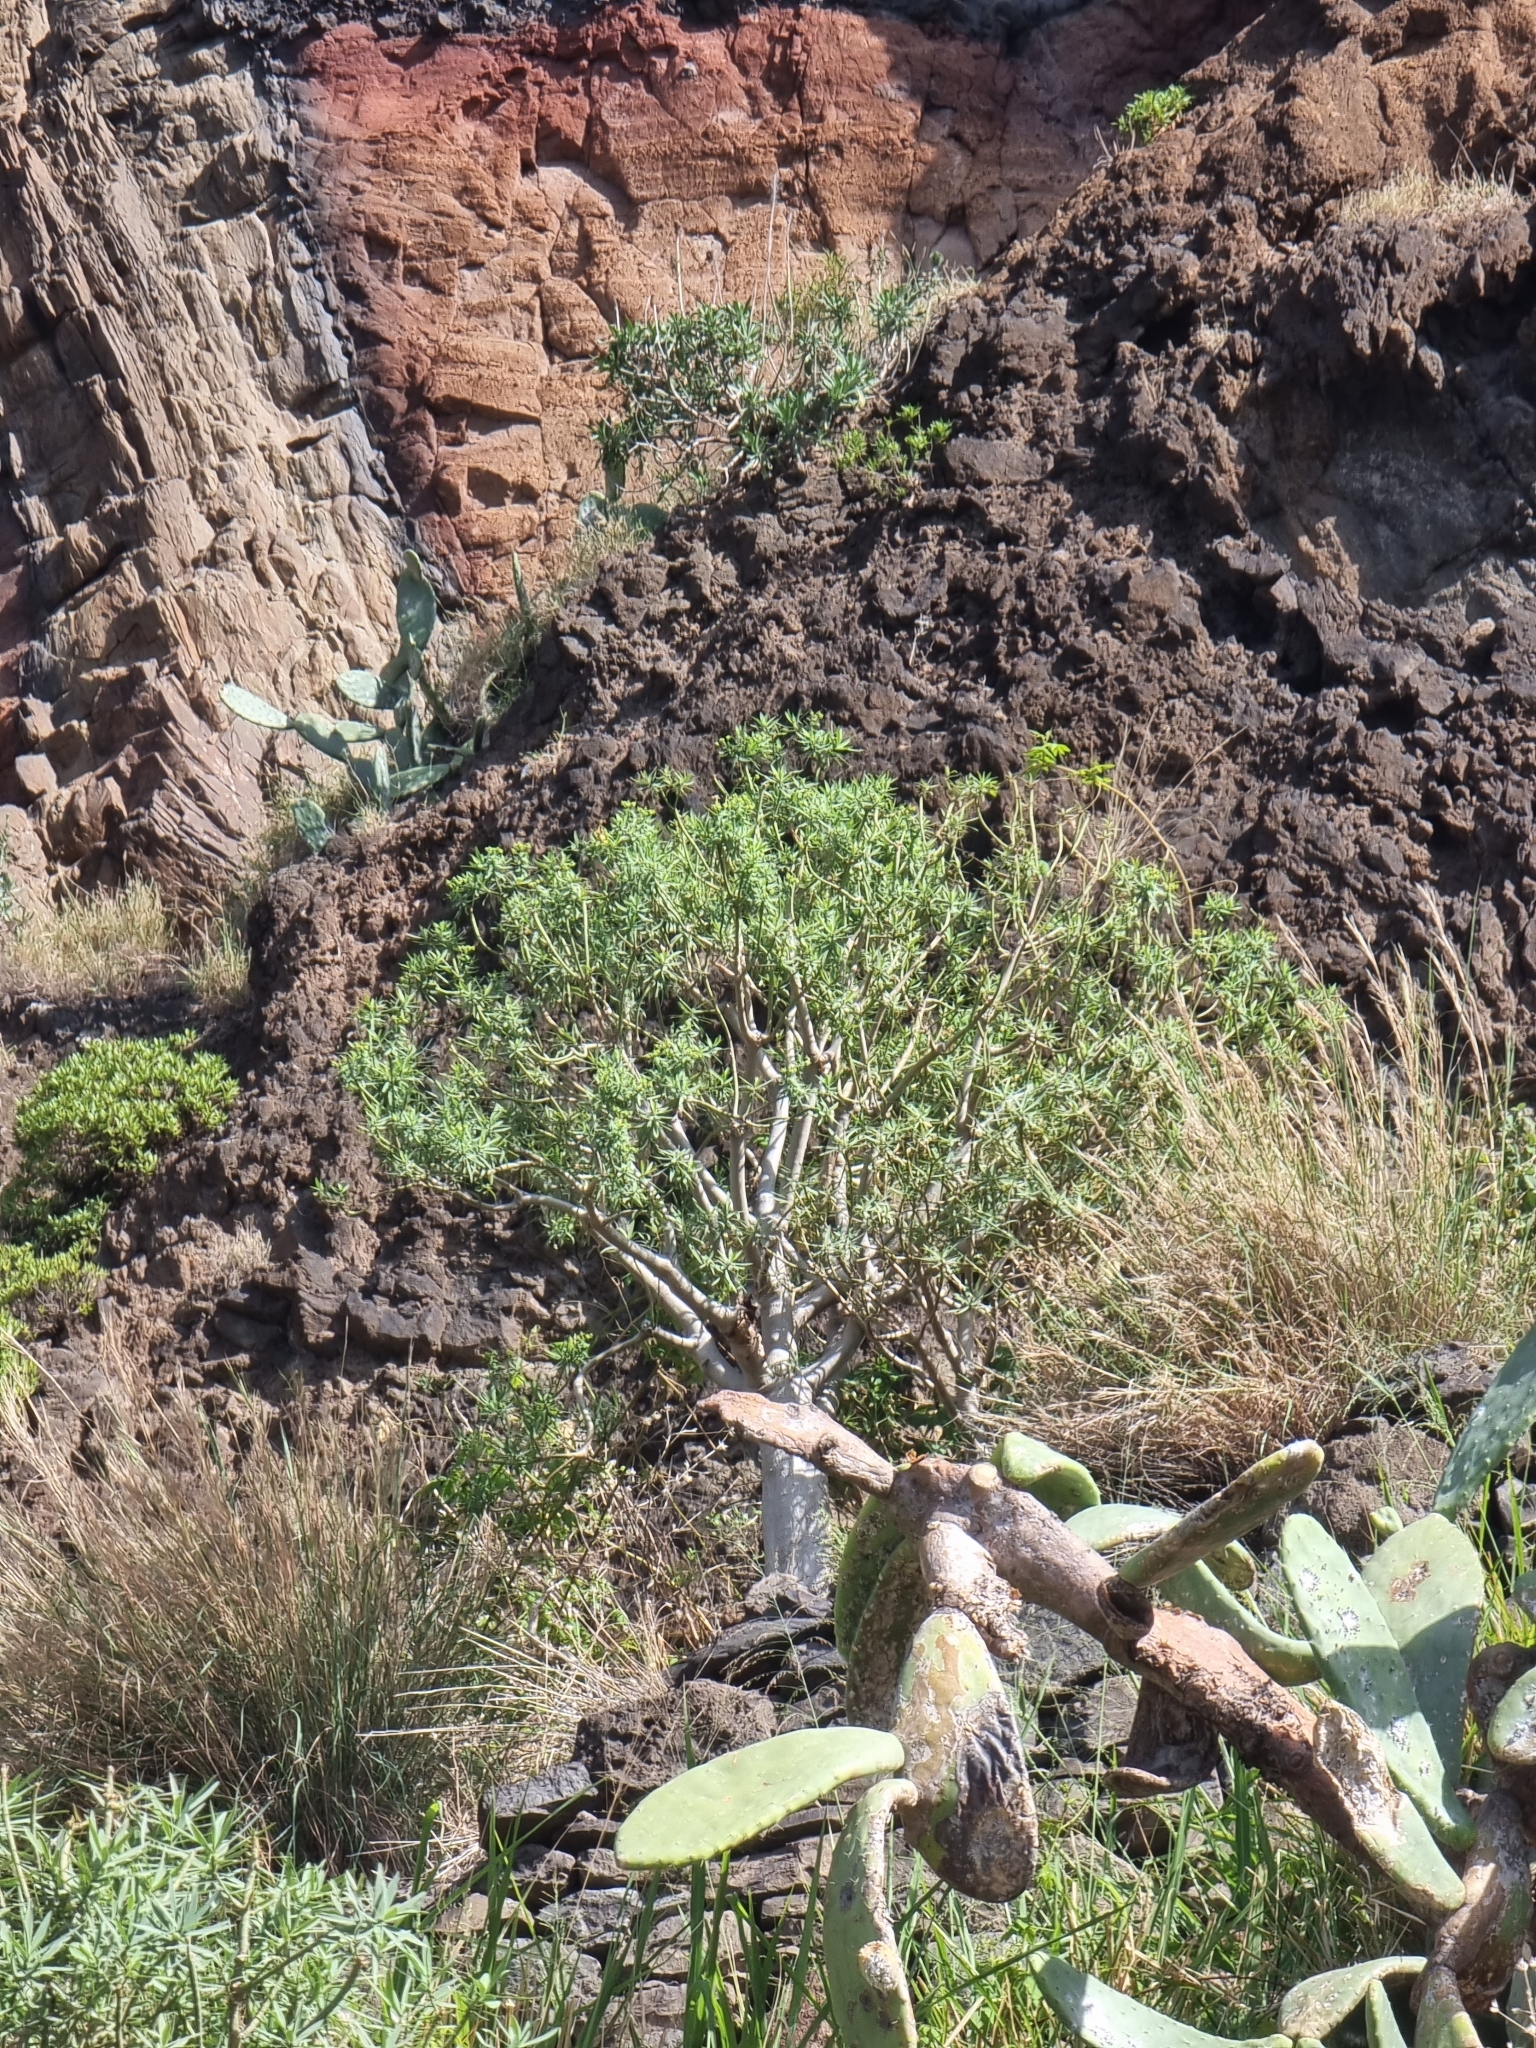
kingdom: Plantae
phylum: Tracheophyta
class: Magnoliopsida
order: Malpighiales
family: Euphorbiaceae
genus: Euphorbia
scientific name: Euphorbia piscatoria
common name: Fish-stunning spurge
